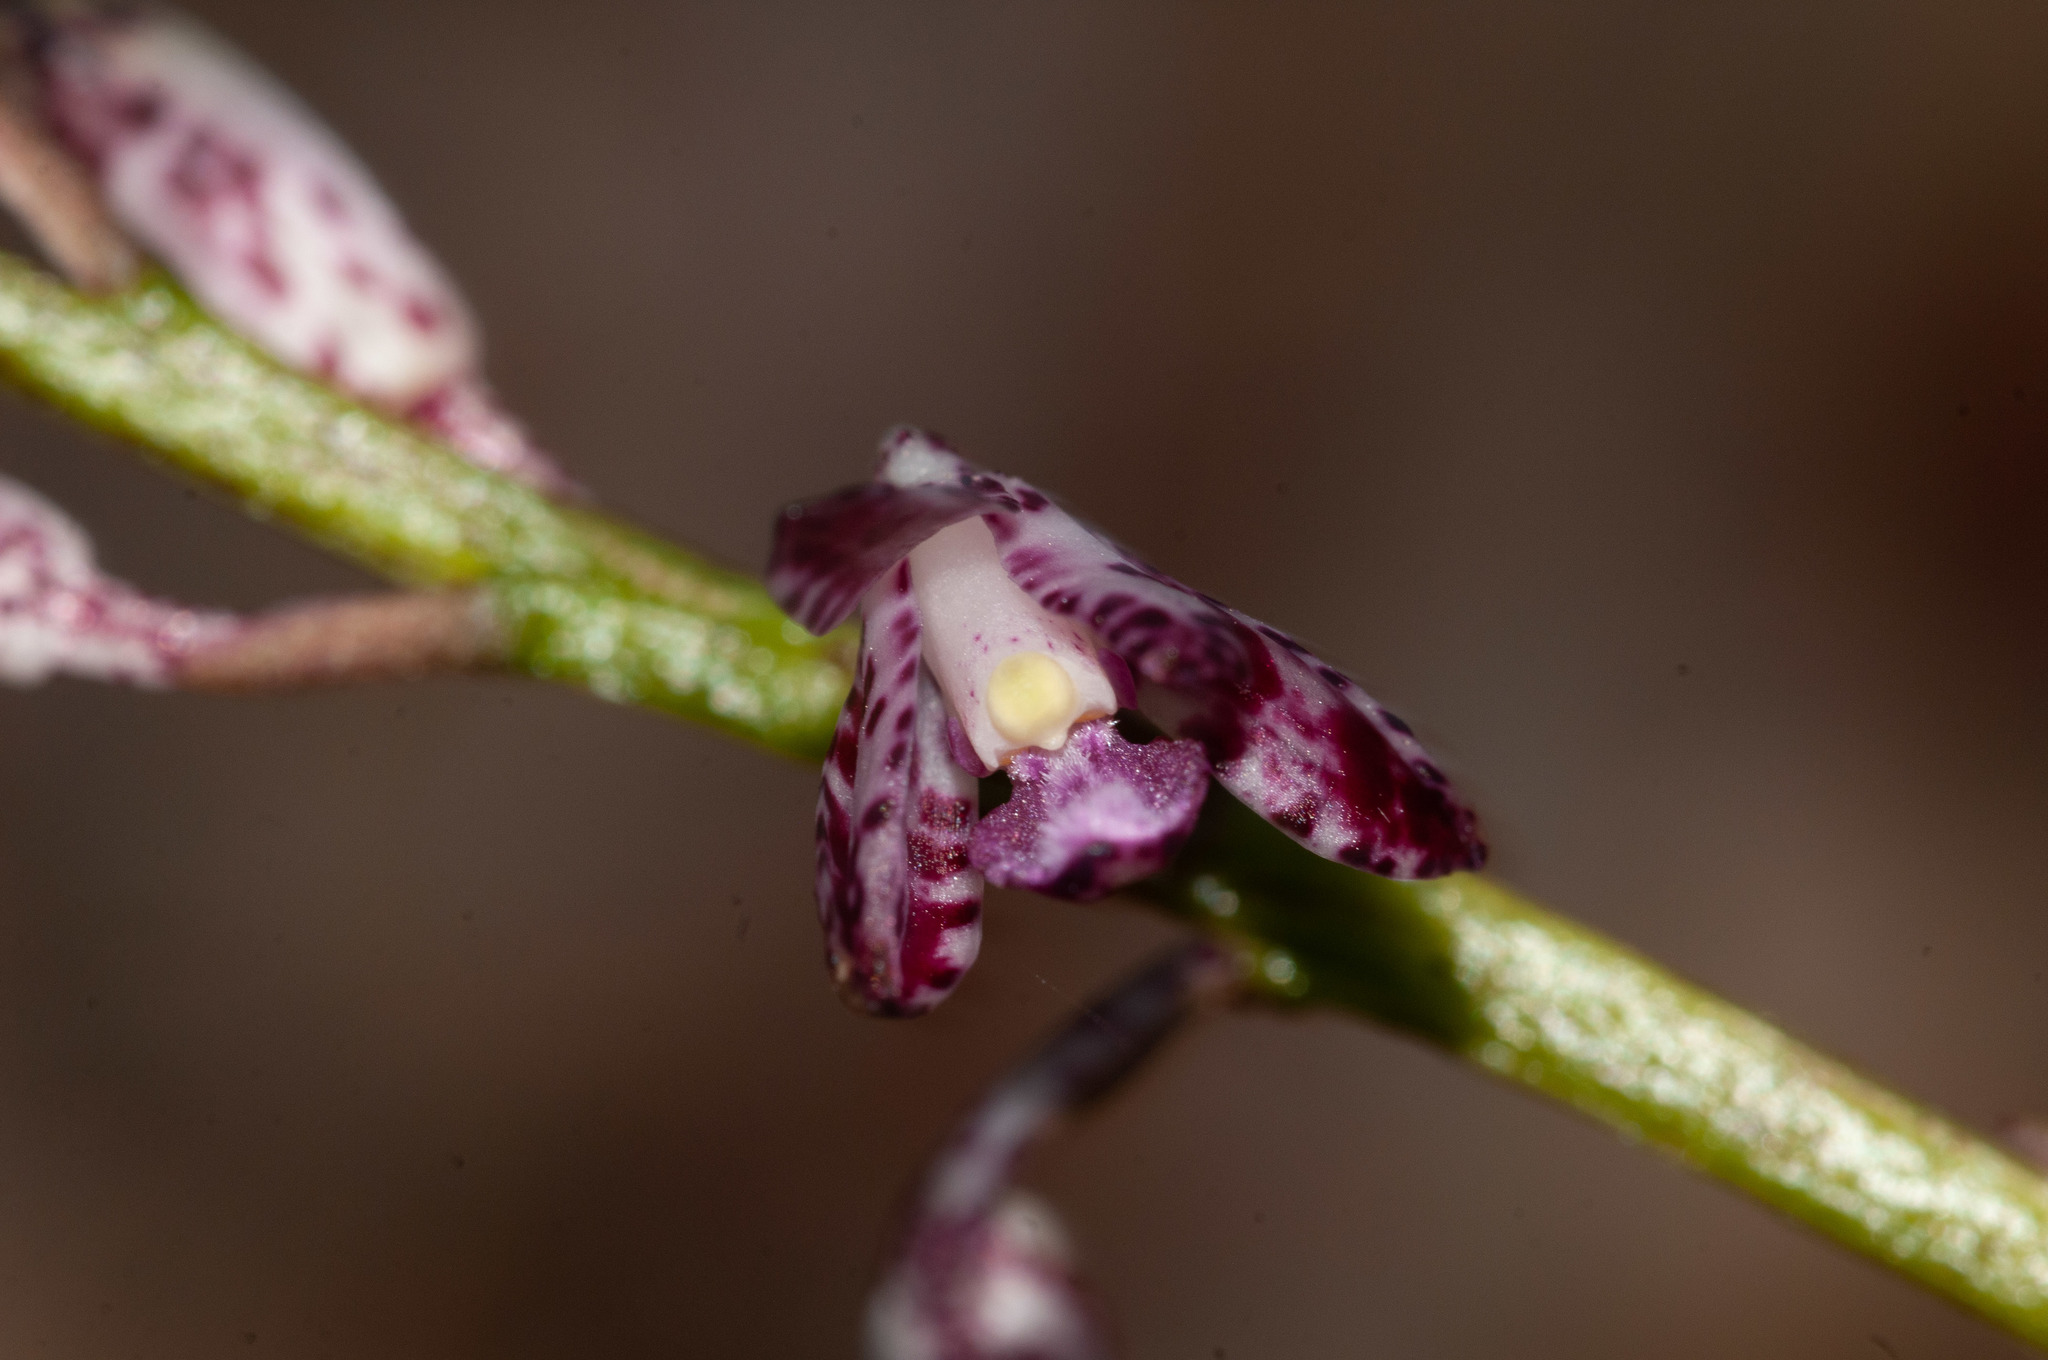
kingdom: Plantae
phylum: Tracheophyta
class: Liliopsida
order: Asparagales
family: Orchidaceae
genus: Dipodium
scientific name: Dipodium variegatum
